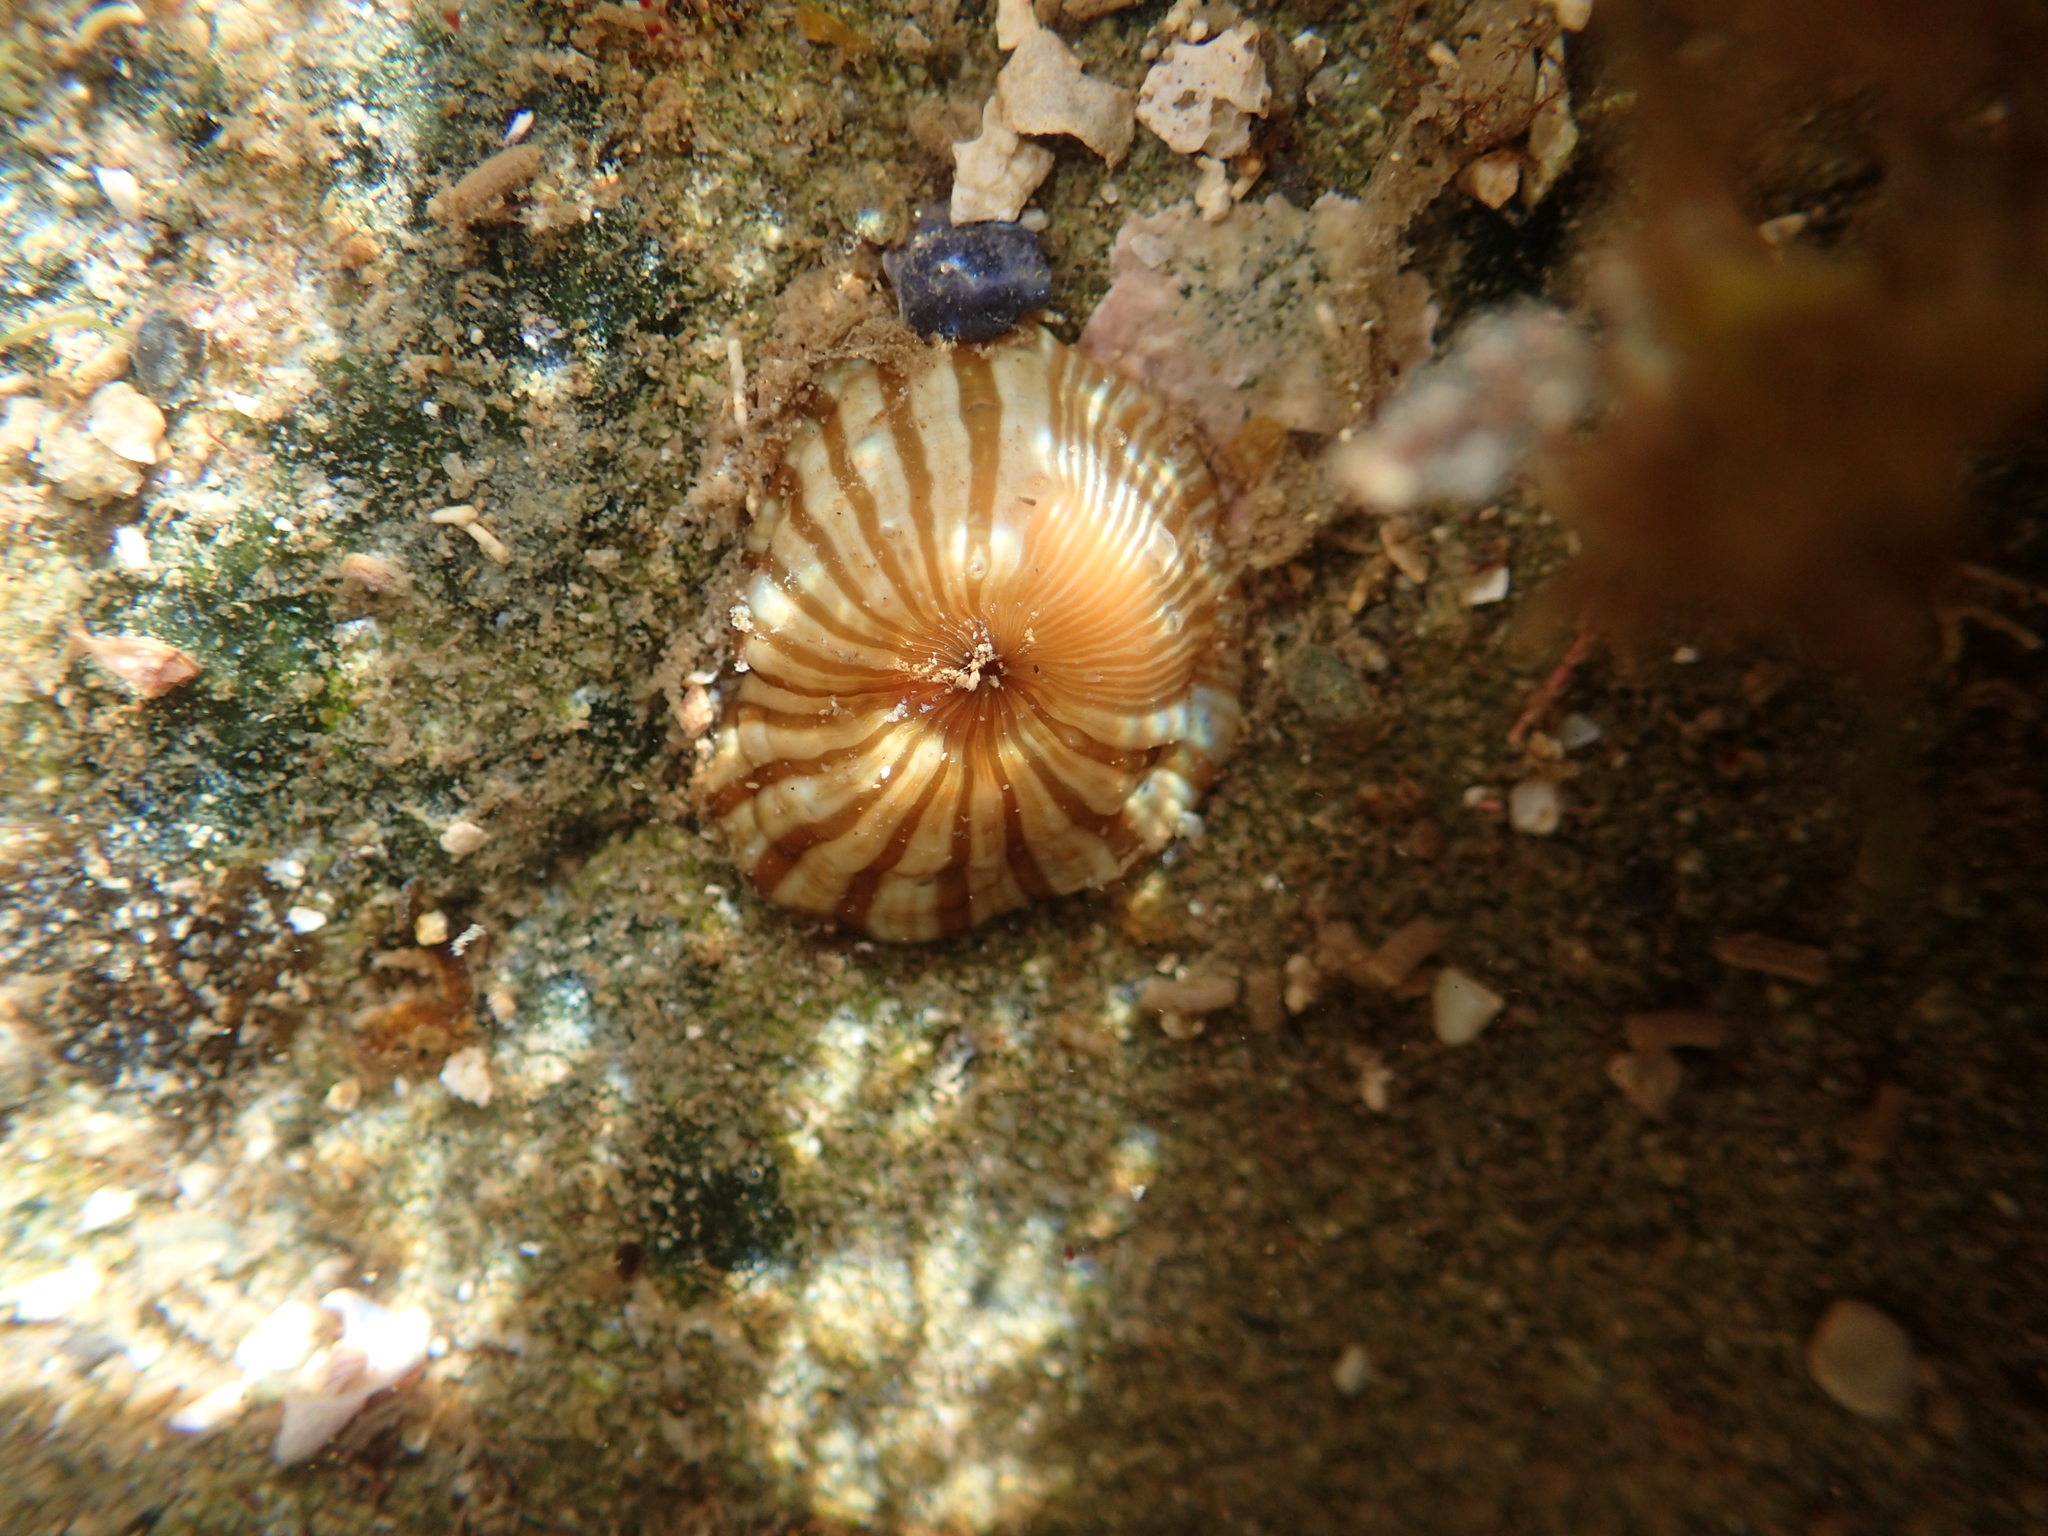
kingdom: Animalia
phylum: Cnidaria
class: Anthozoa
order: Actiniaria
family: Sagartiidae
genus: Anthothoe
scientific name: Anthothoe albocincta
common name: Orange striped anemone
